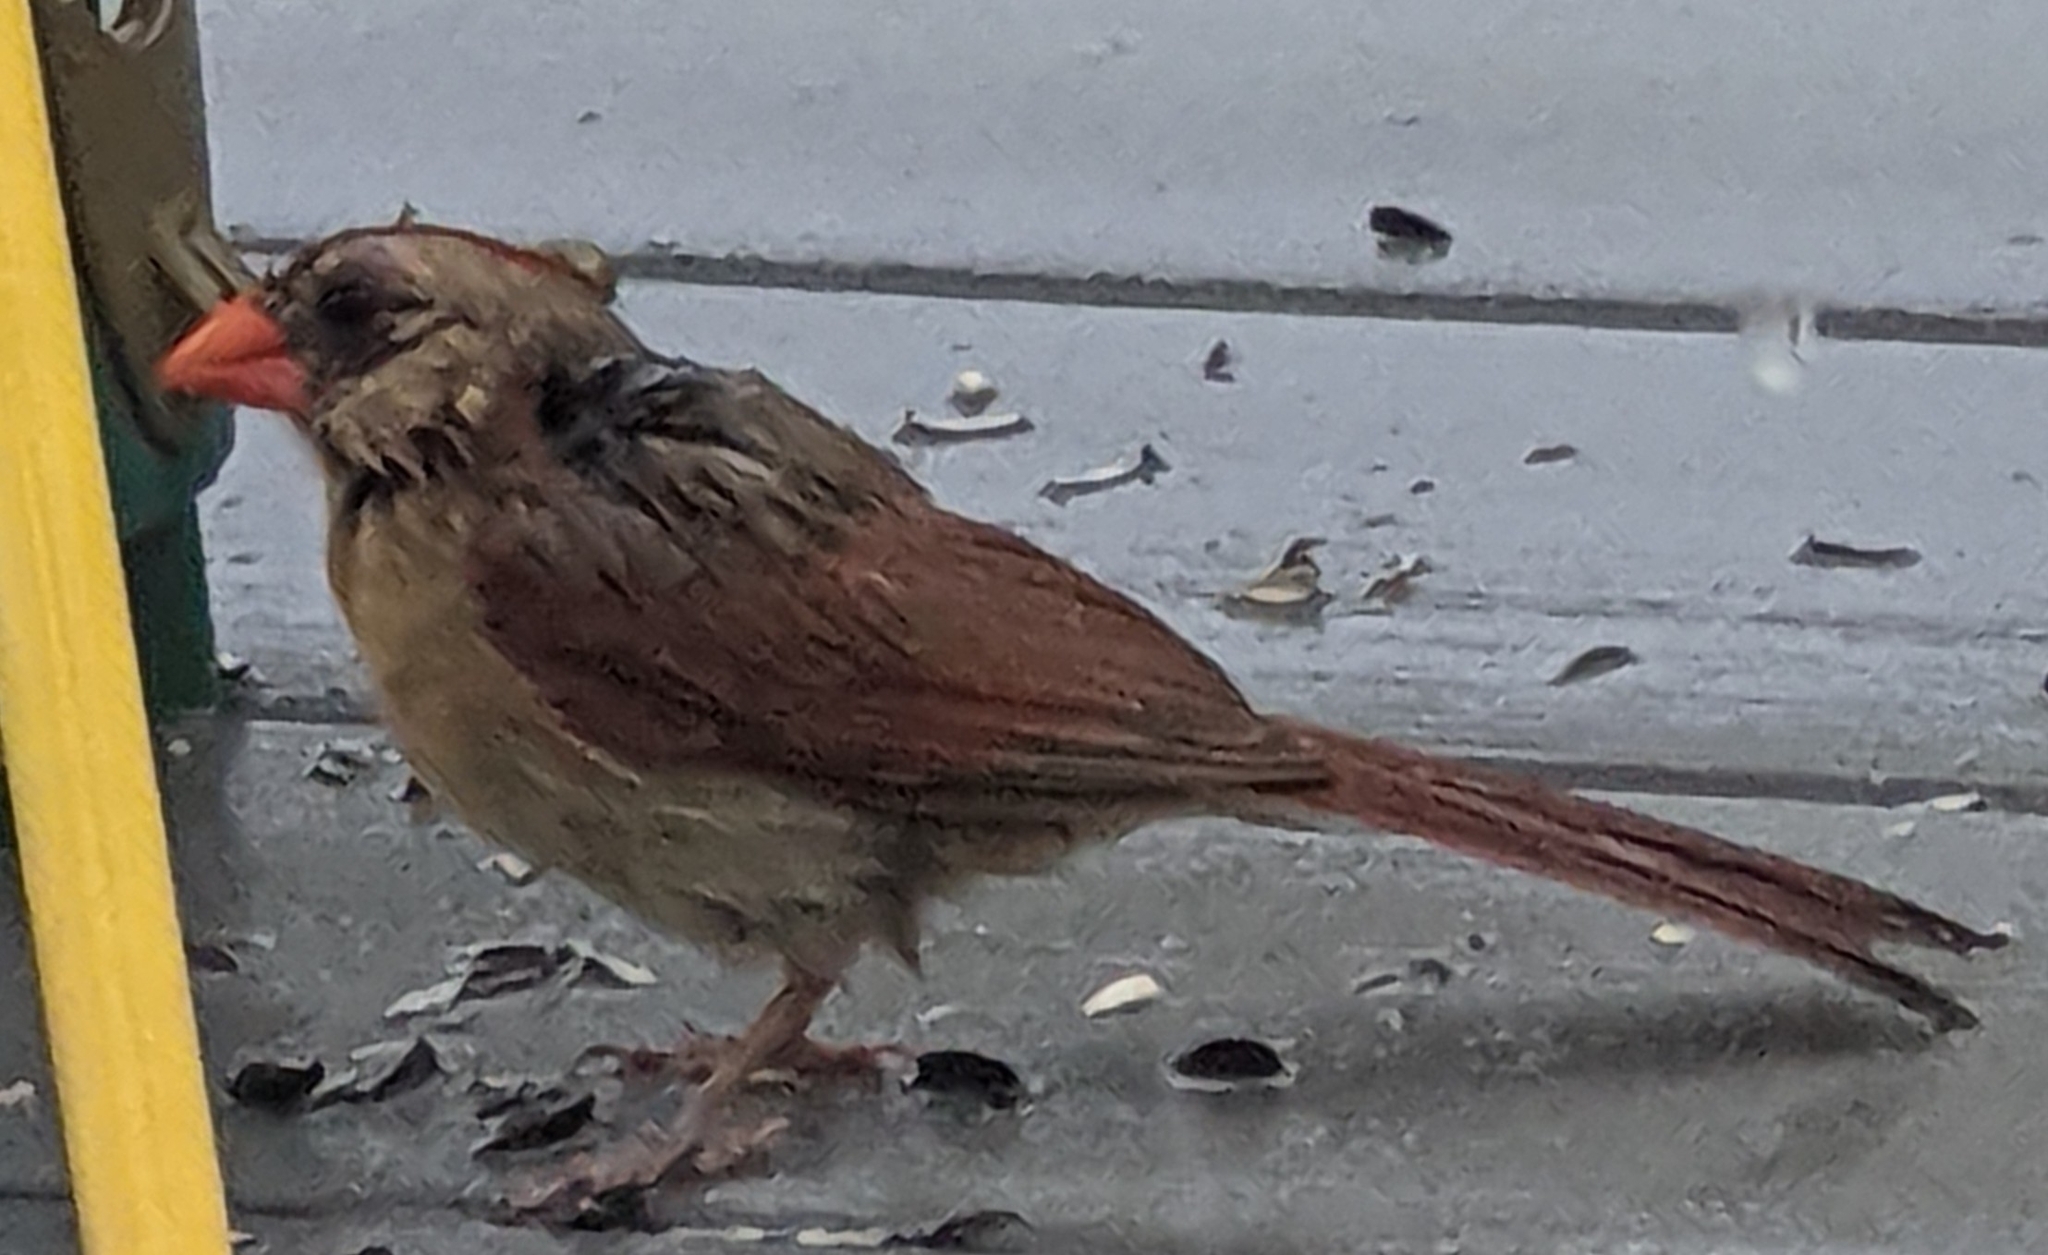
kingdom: Animalia
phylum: Chordata
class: Aves
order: Passeriformes
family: Cardinalidae
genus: Cardinalis
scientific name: Cardinalis cardinalis
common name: Northern cardinal
